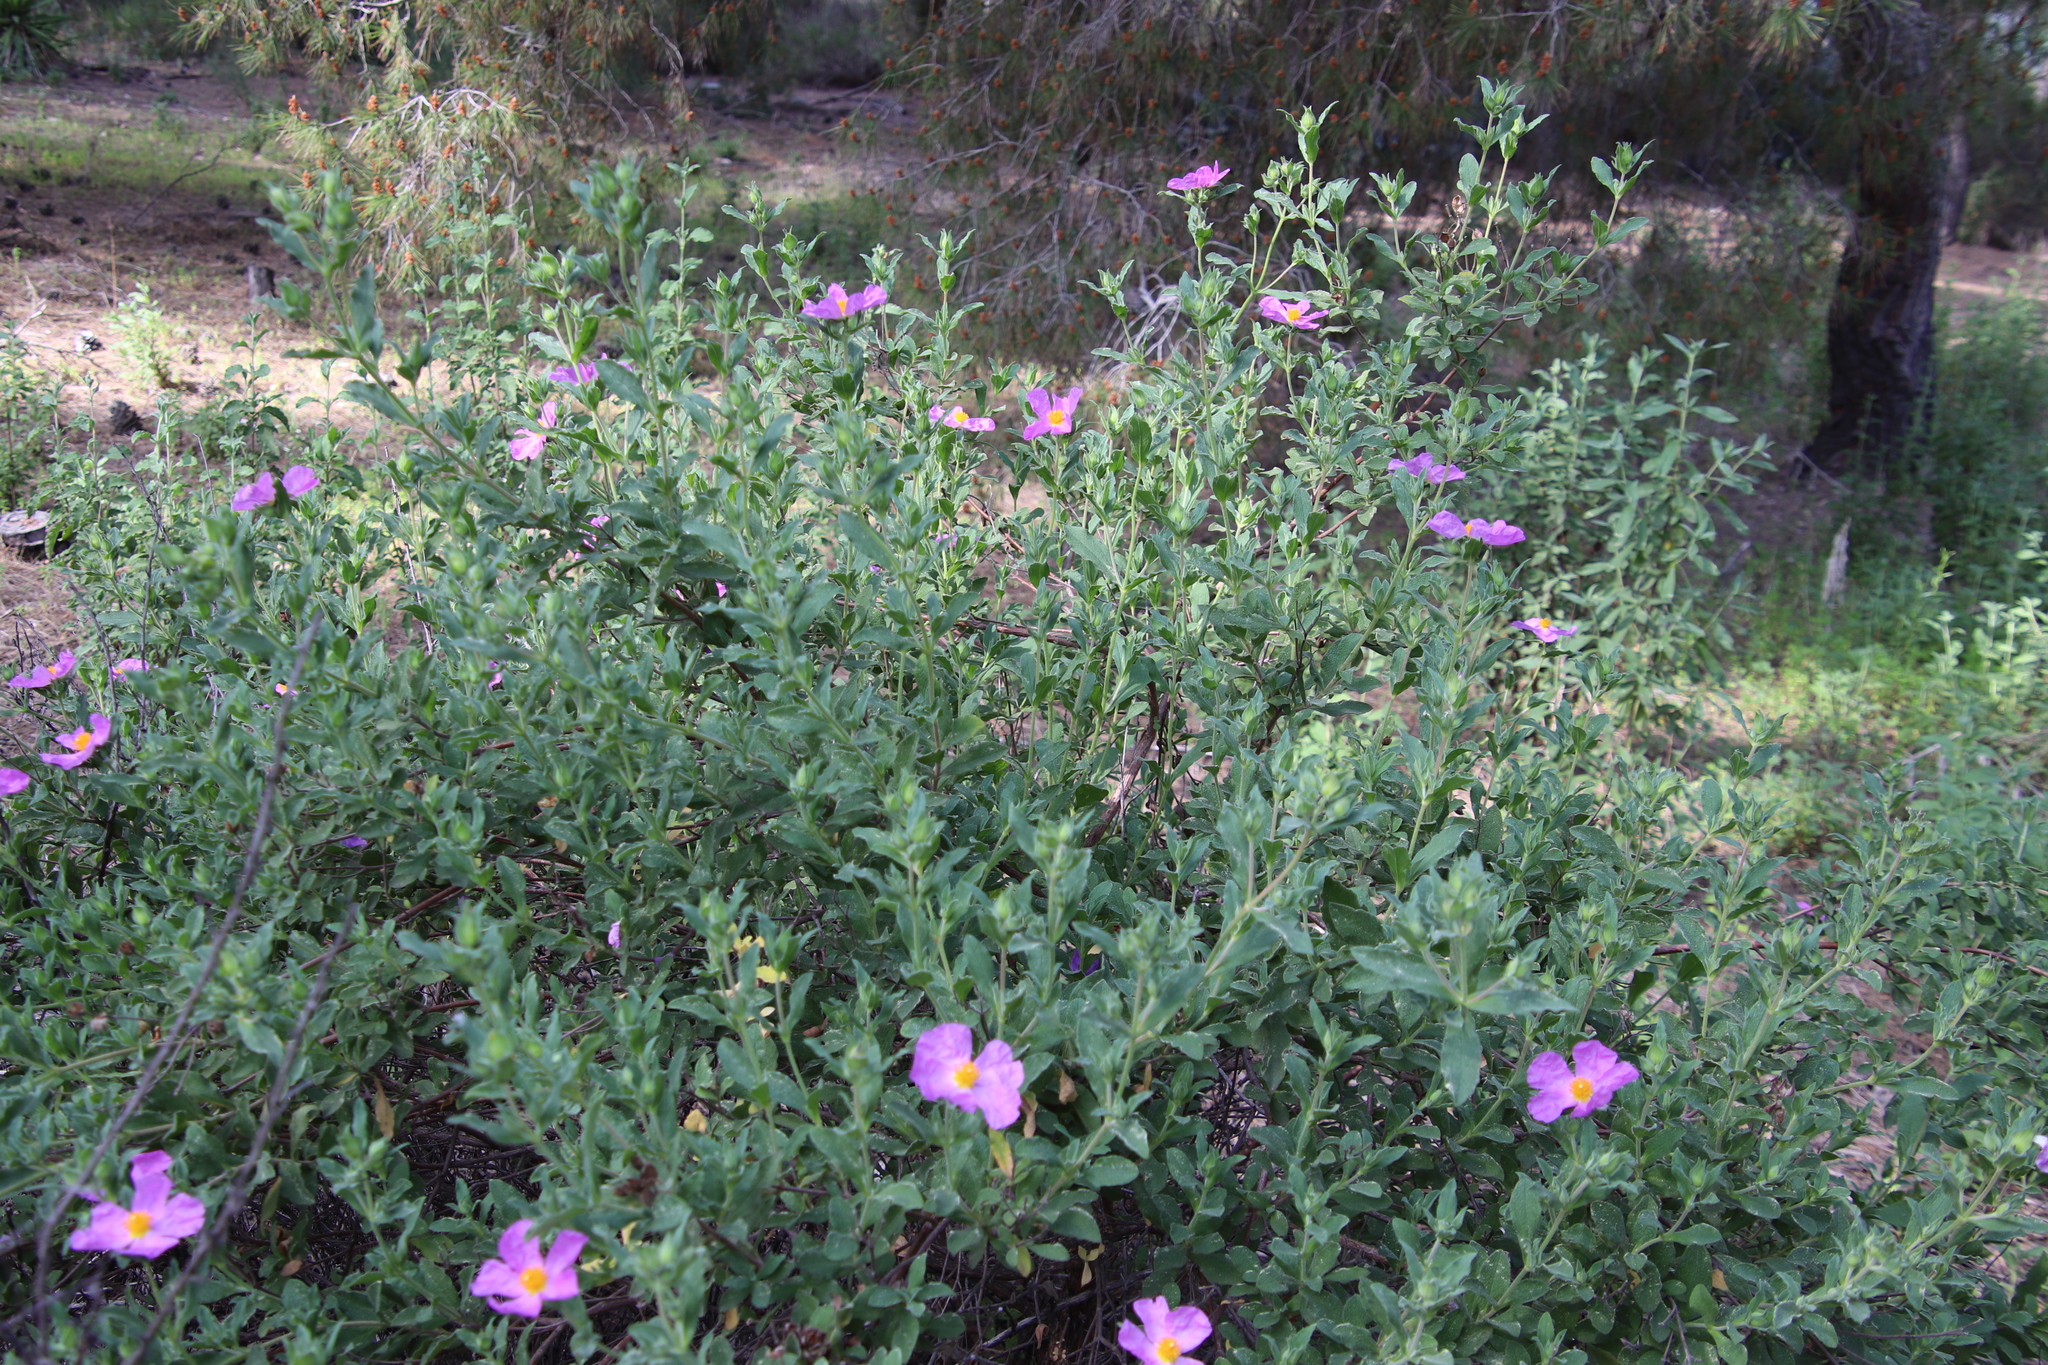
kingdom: Plantae
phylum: Tracheophyta
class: Magnoliopsida
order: Malvales
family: Cistaceae
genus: Cistus
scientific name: Cistus creticus
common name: Cretan rockrose
